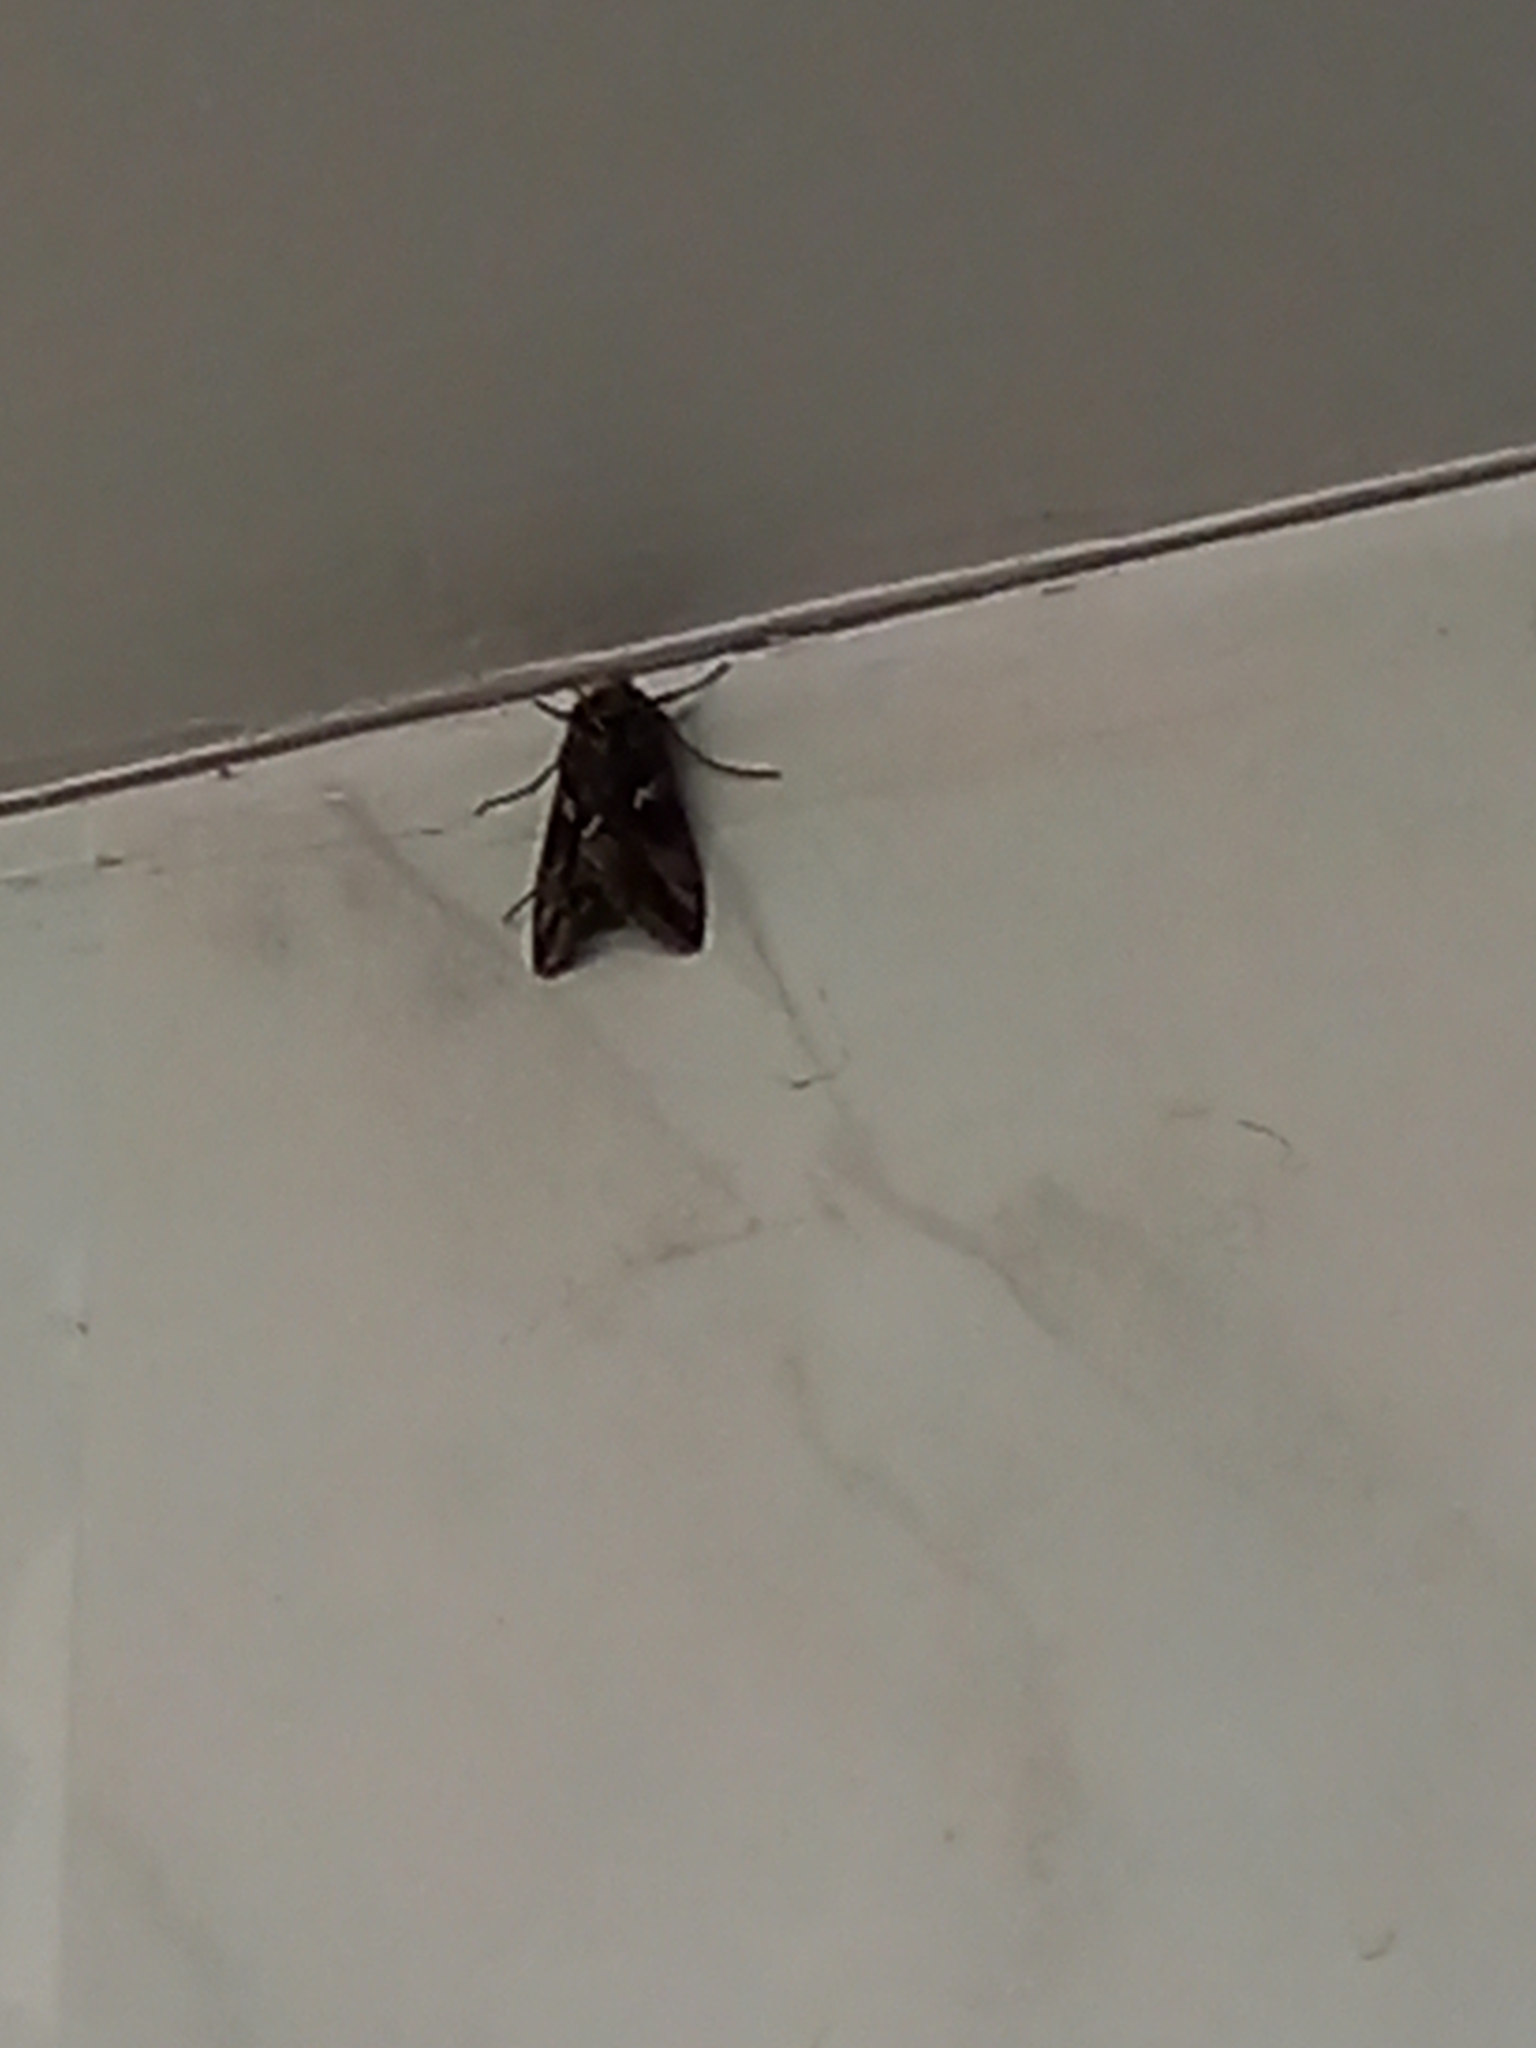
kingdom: Animalia
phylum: Arthropoda
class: Insecta
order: Lepidoptera
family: Noctuidae
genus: Autographa
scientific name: Autographa gamma
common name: Silver y
